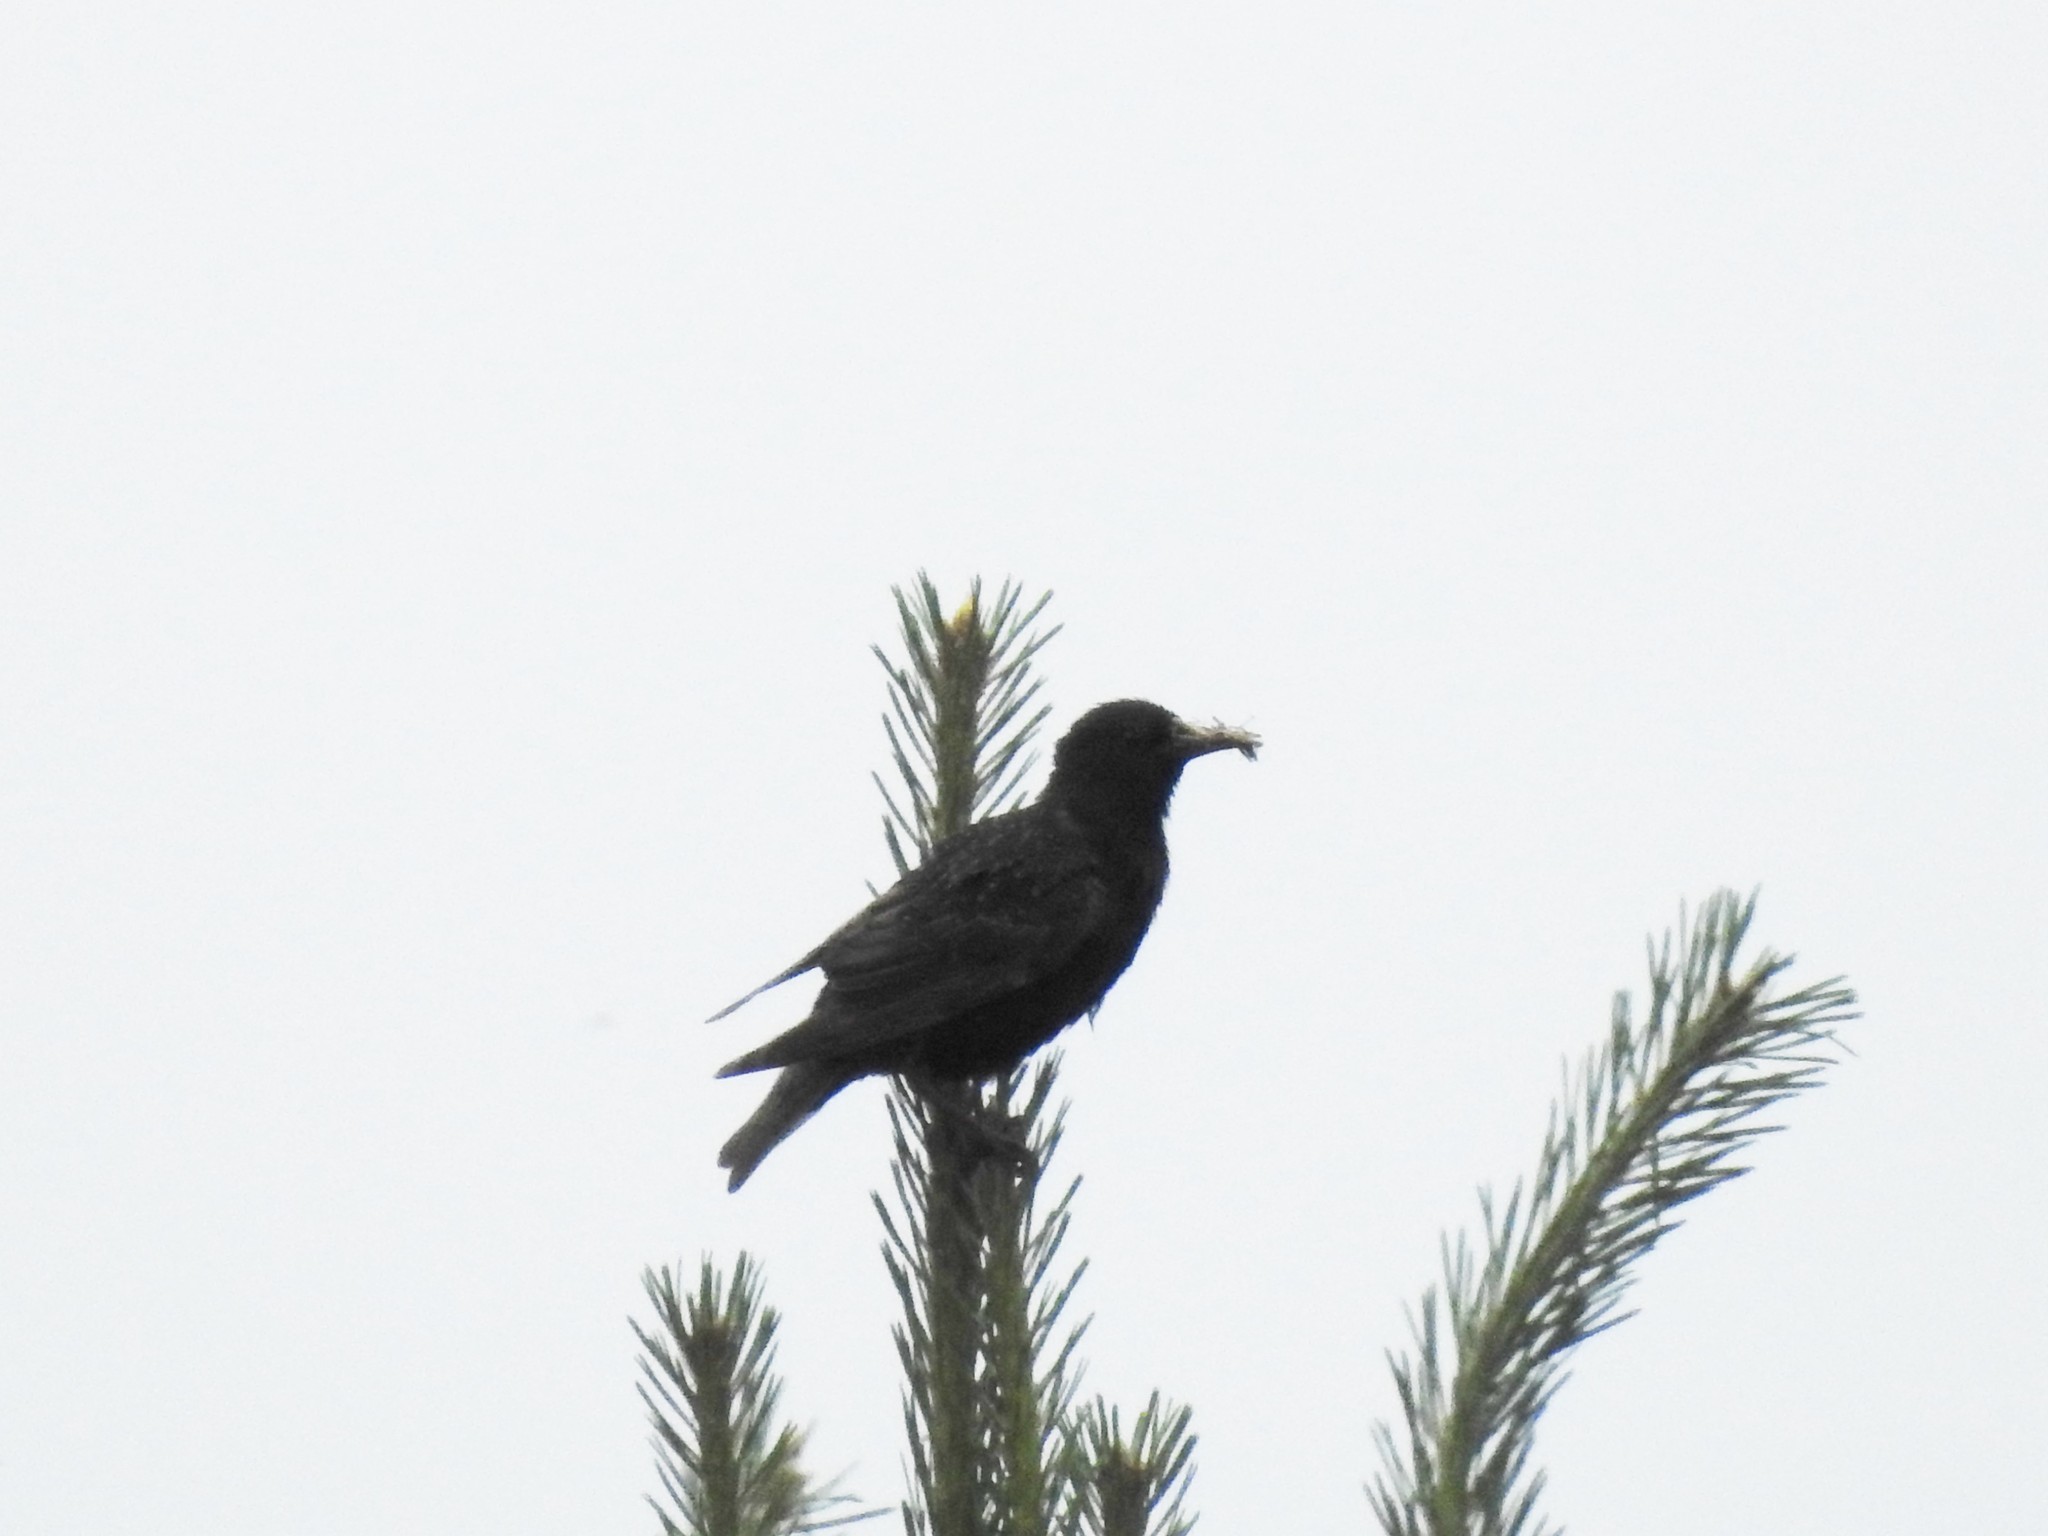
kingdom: Animalia
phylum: Chordata
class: Aves
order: Passeriformes
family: Sturnidae
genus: Sturnus
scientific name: Sturnus vulgaris
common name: Common starling
